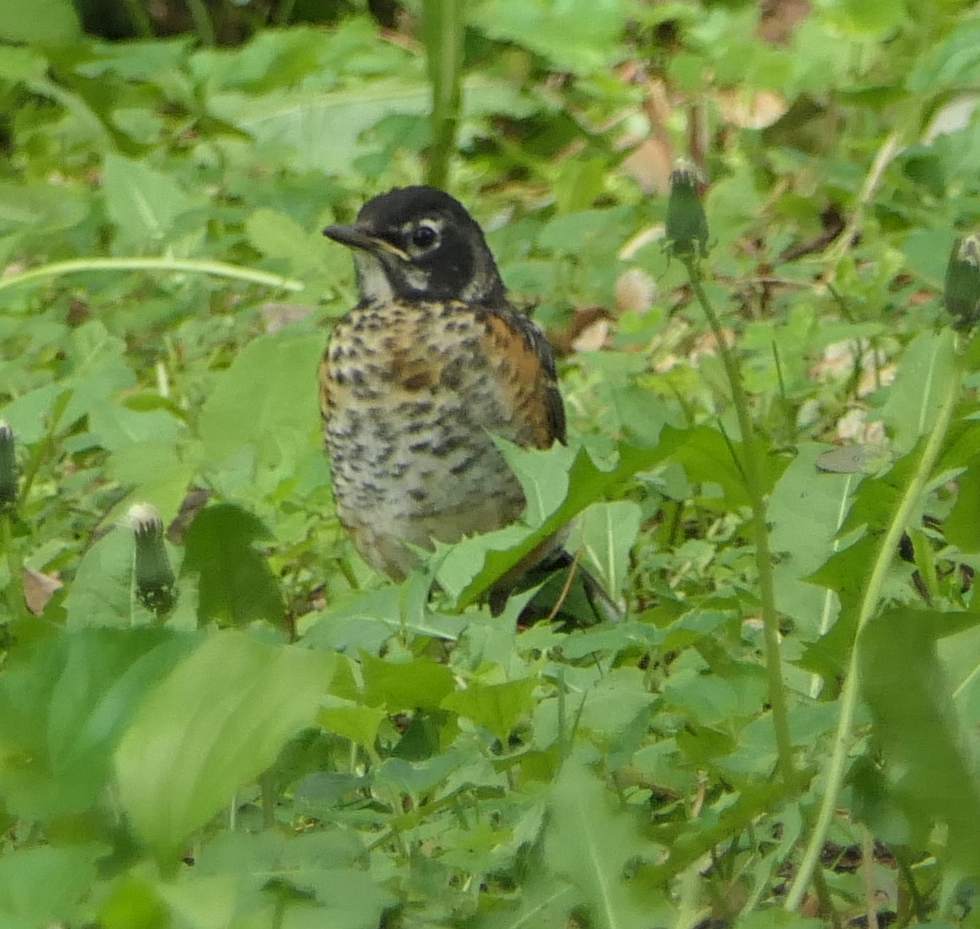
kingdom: Animalia
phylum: Chordata
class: Aves
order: Passeriformes
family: Turdidae
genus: Turdus
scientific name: Turdus migratorius
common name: American robin
